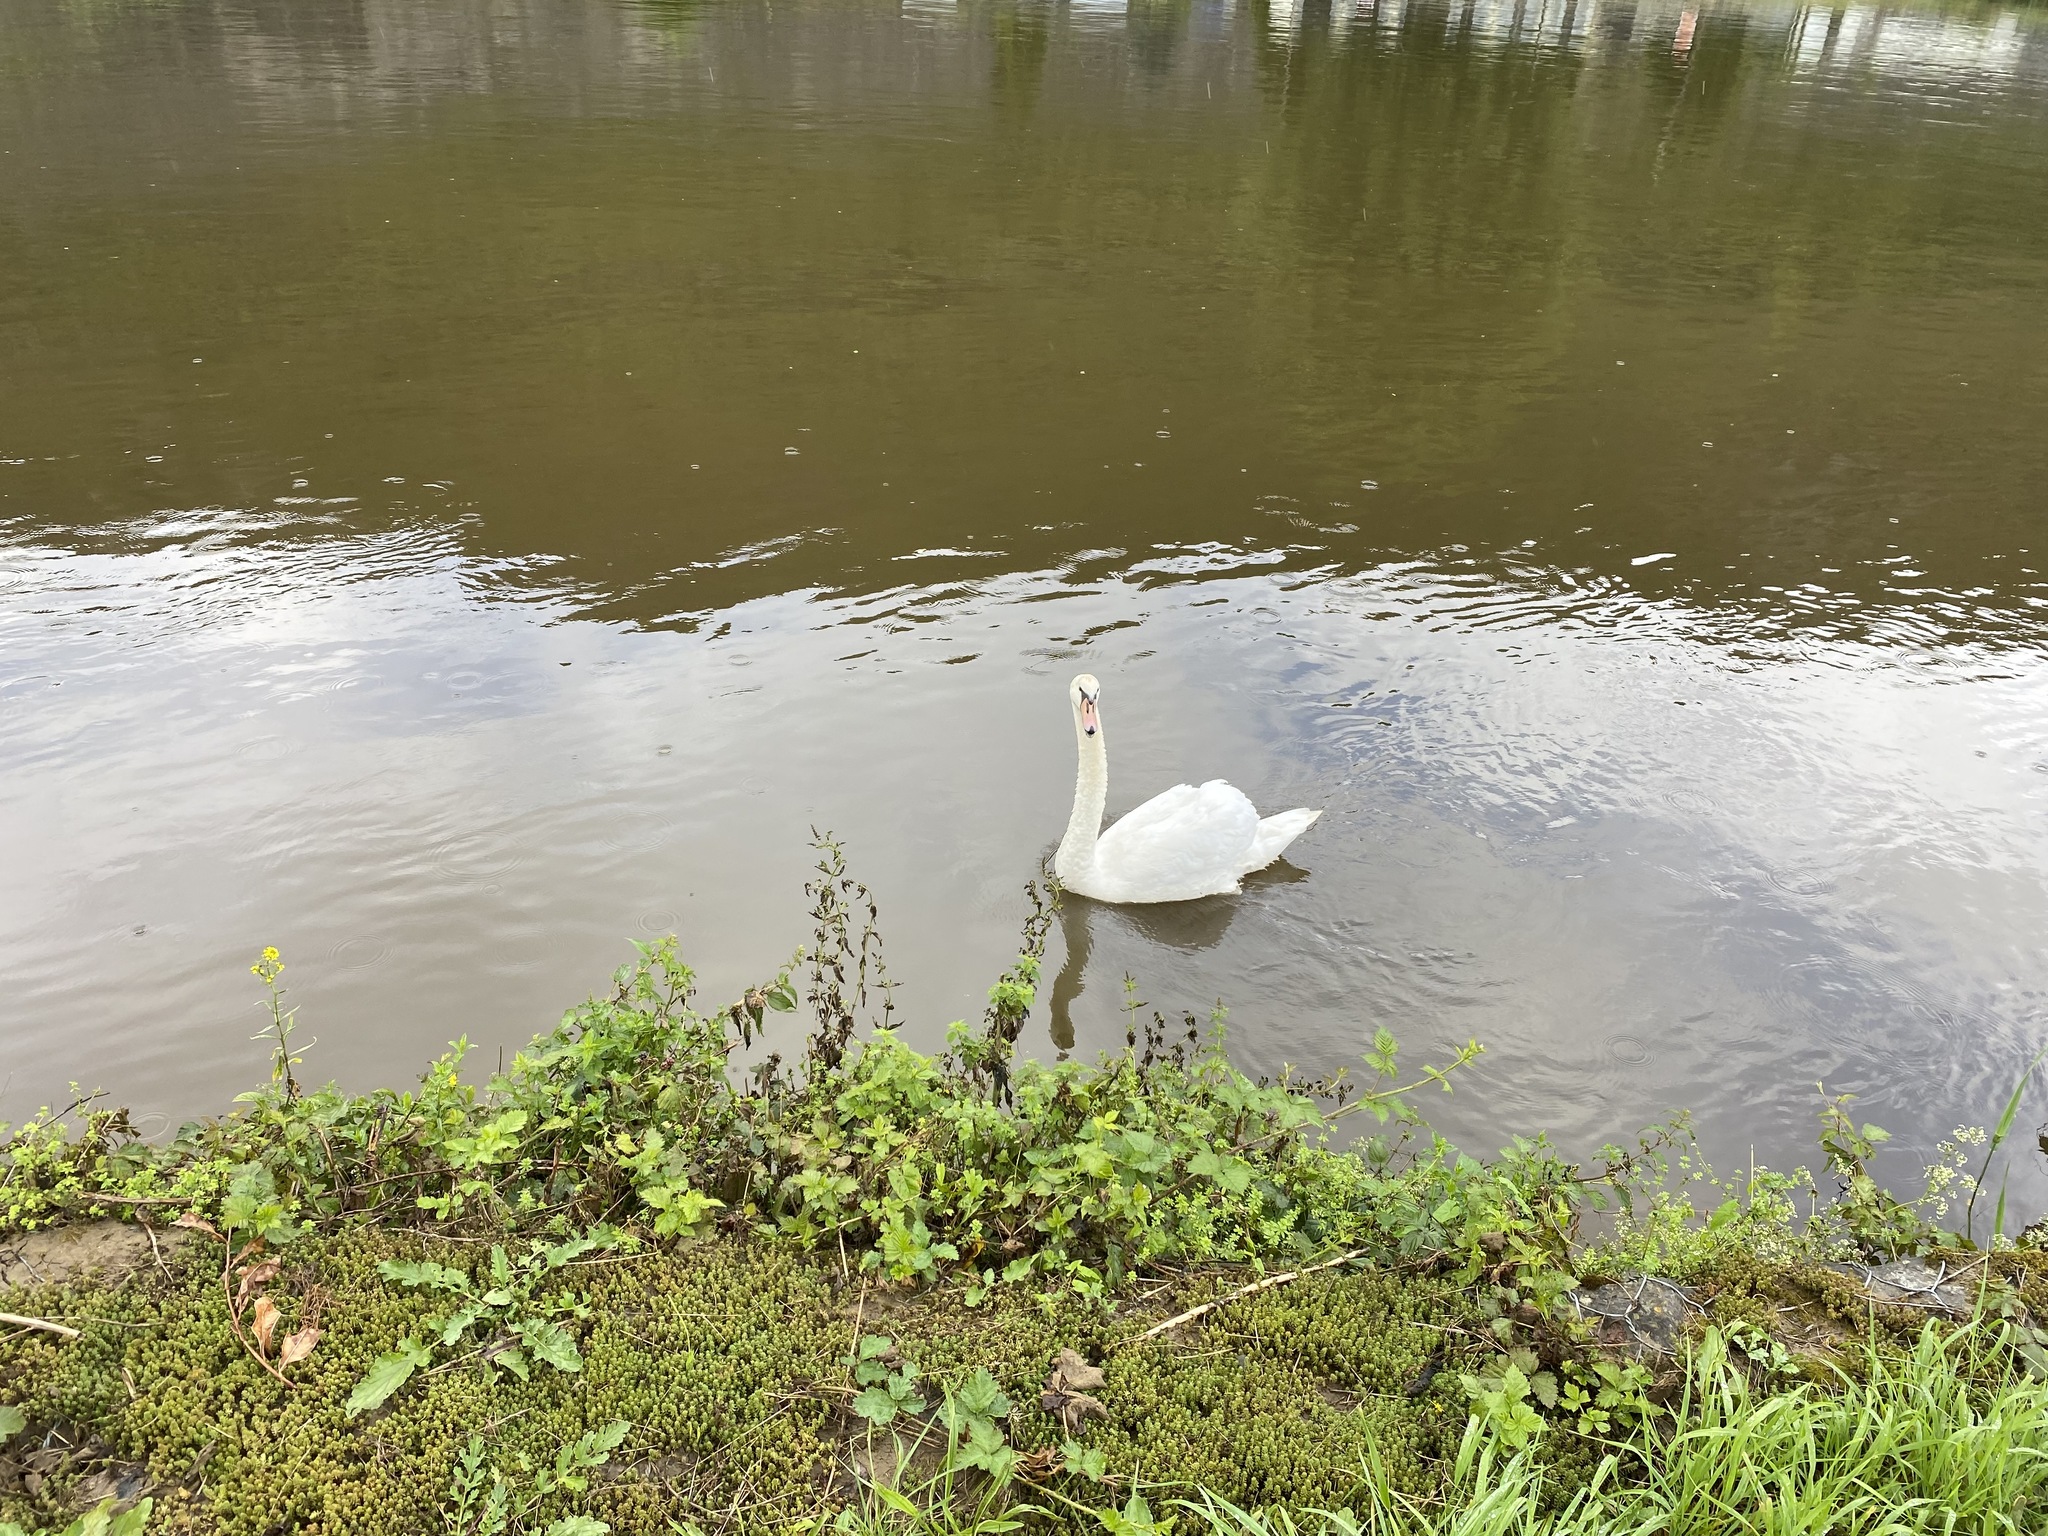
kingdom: Animalia
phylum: Chordata
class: Aves
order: Anseriformes
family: Anatidae
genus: Cygnus
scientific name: Cygnus olor
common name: Mute swan
